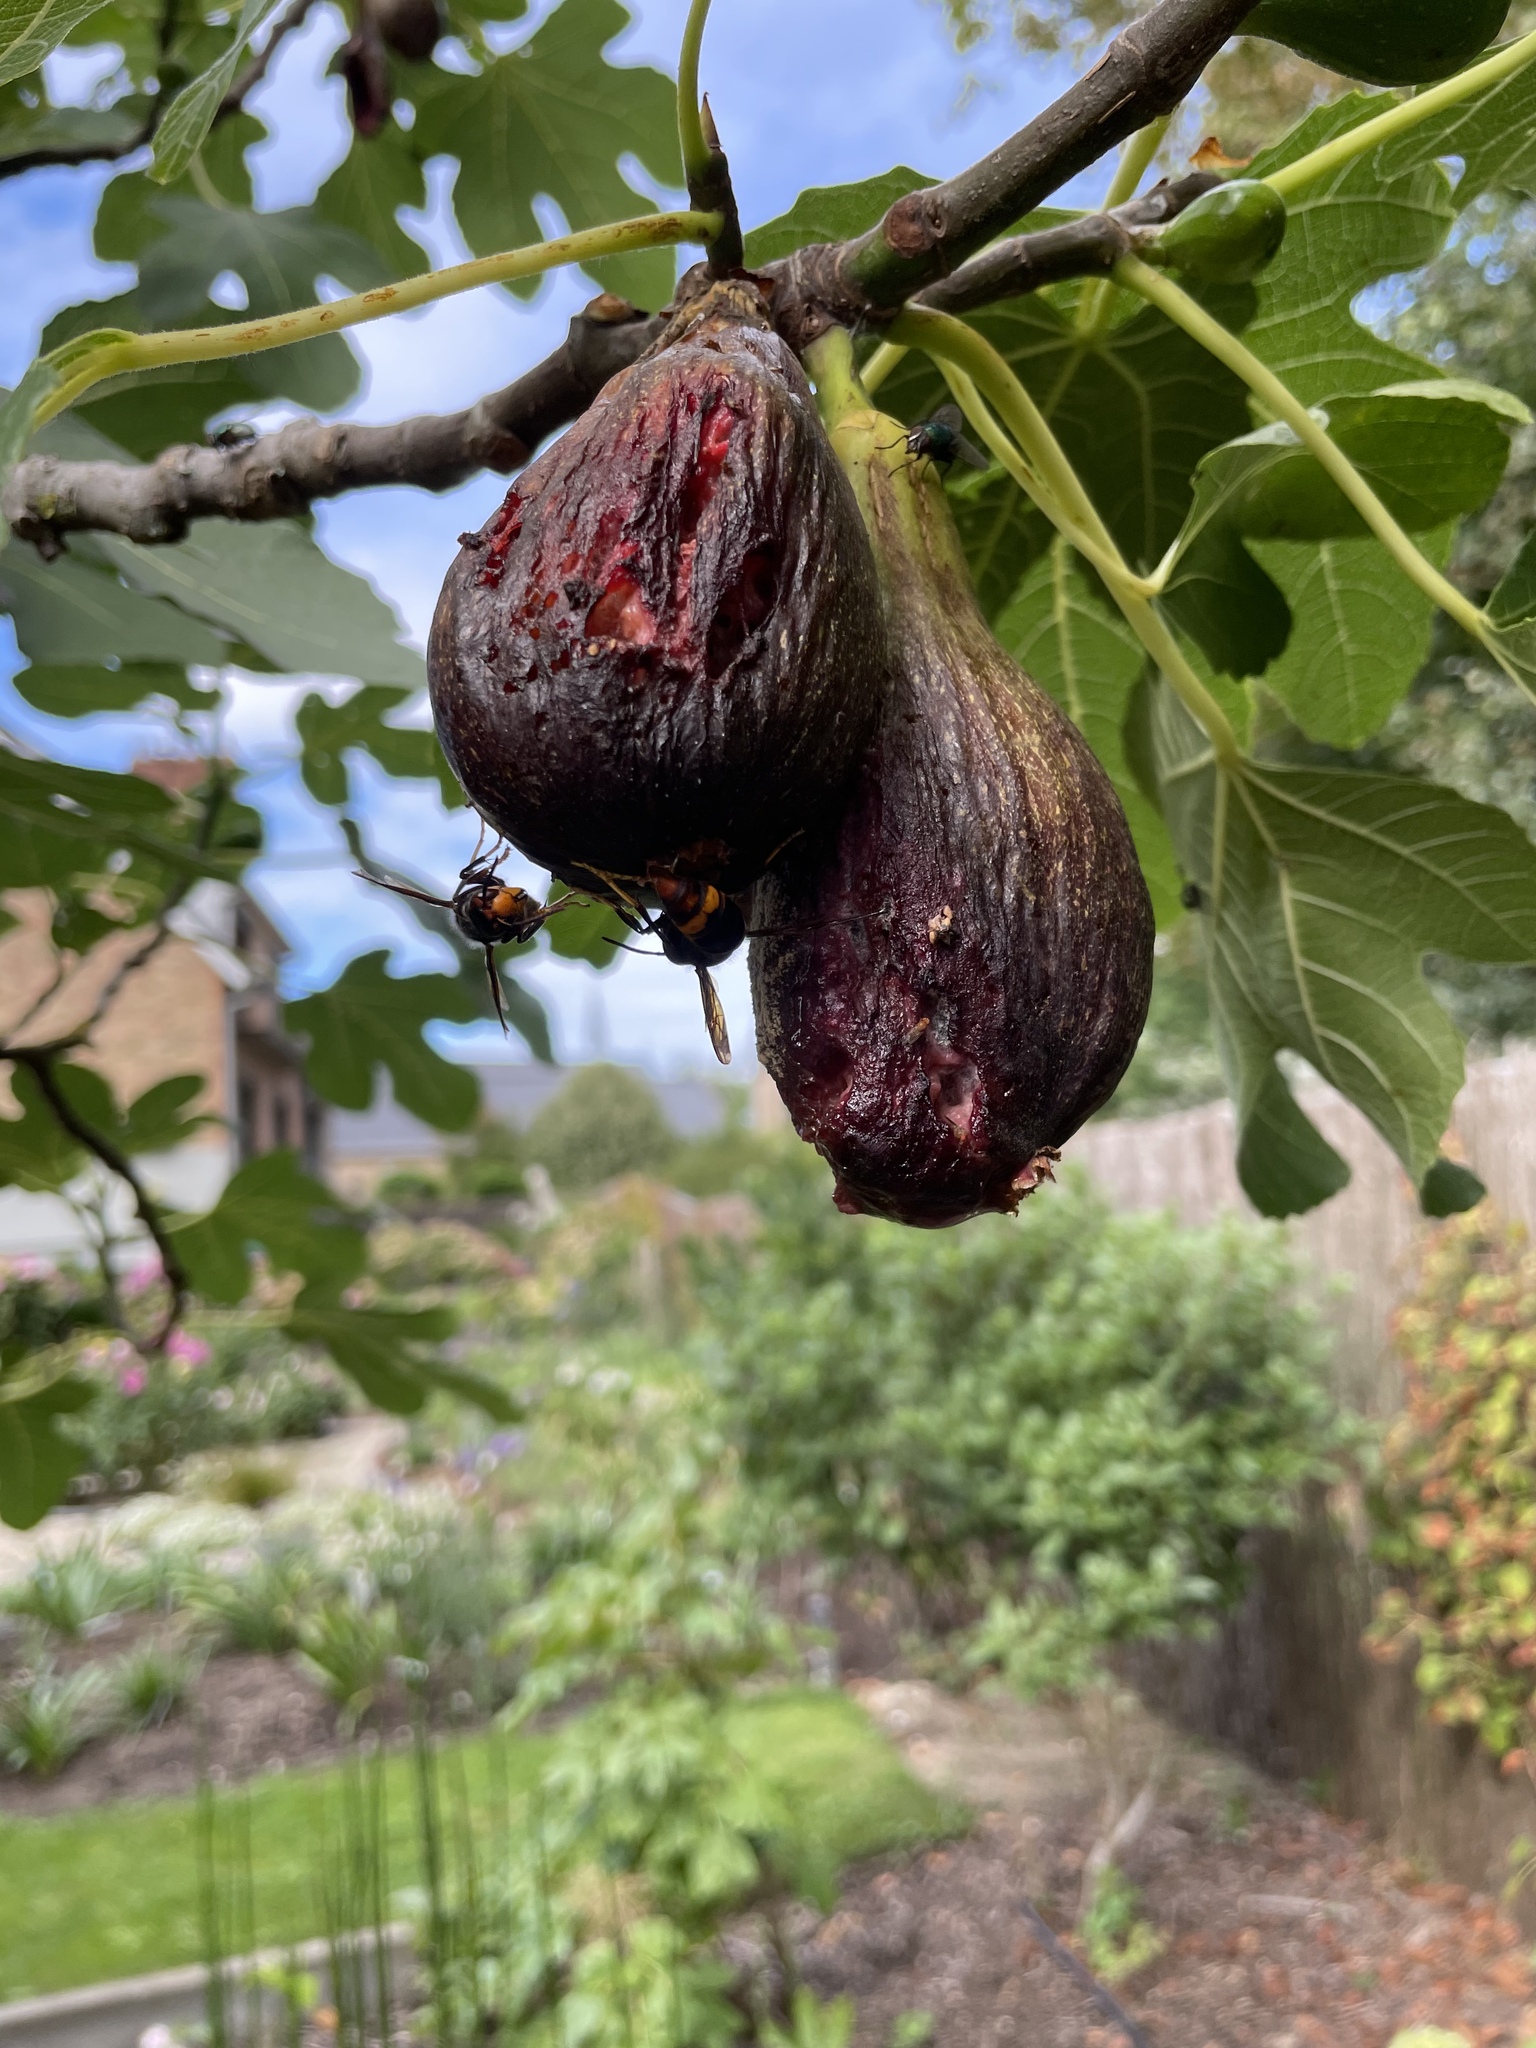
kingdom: Animalia
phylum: Arthropoda
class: Insecta
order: Hymenoptera
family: Vespidae
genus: Vespa
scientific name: Vespa velutina
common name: Asian hornet
